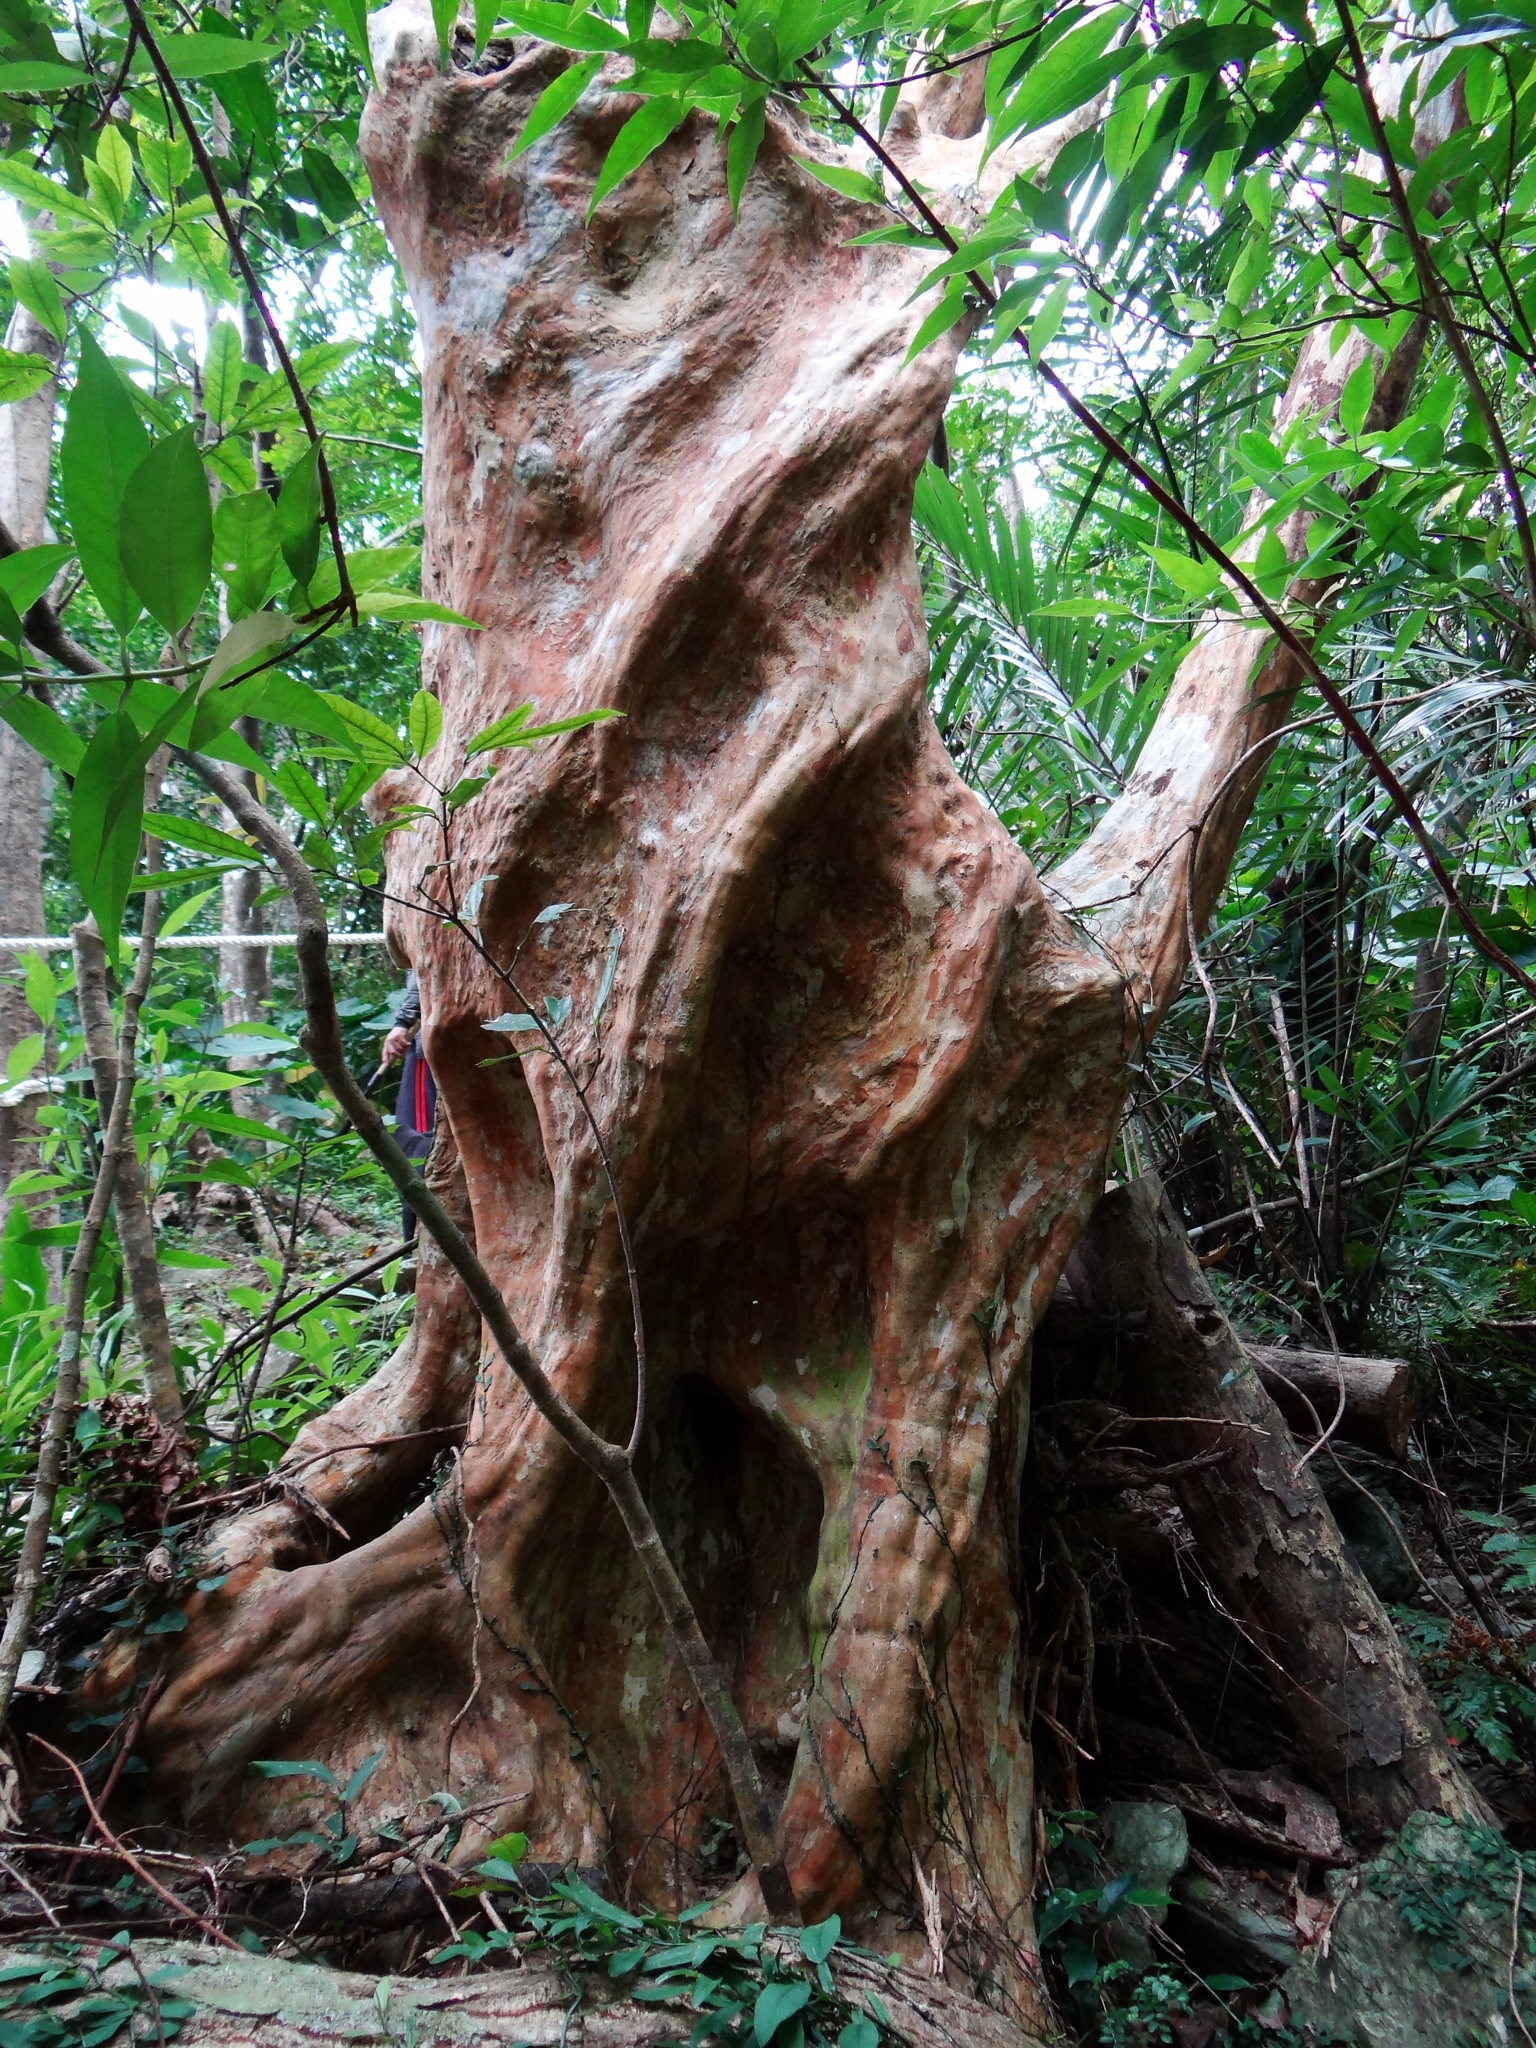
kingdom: Plantae
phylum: Tracheophyta
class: Magnoliopsida
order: Myrtales
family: Lythraceae
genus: Lagerstroemia
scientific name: Lagerstroemia subcostata
